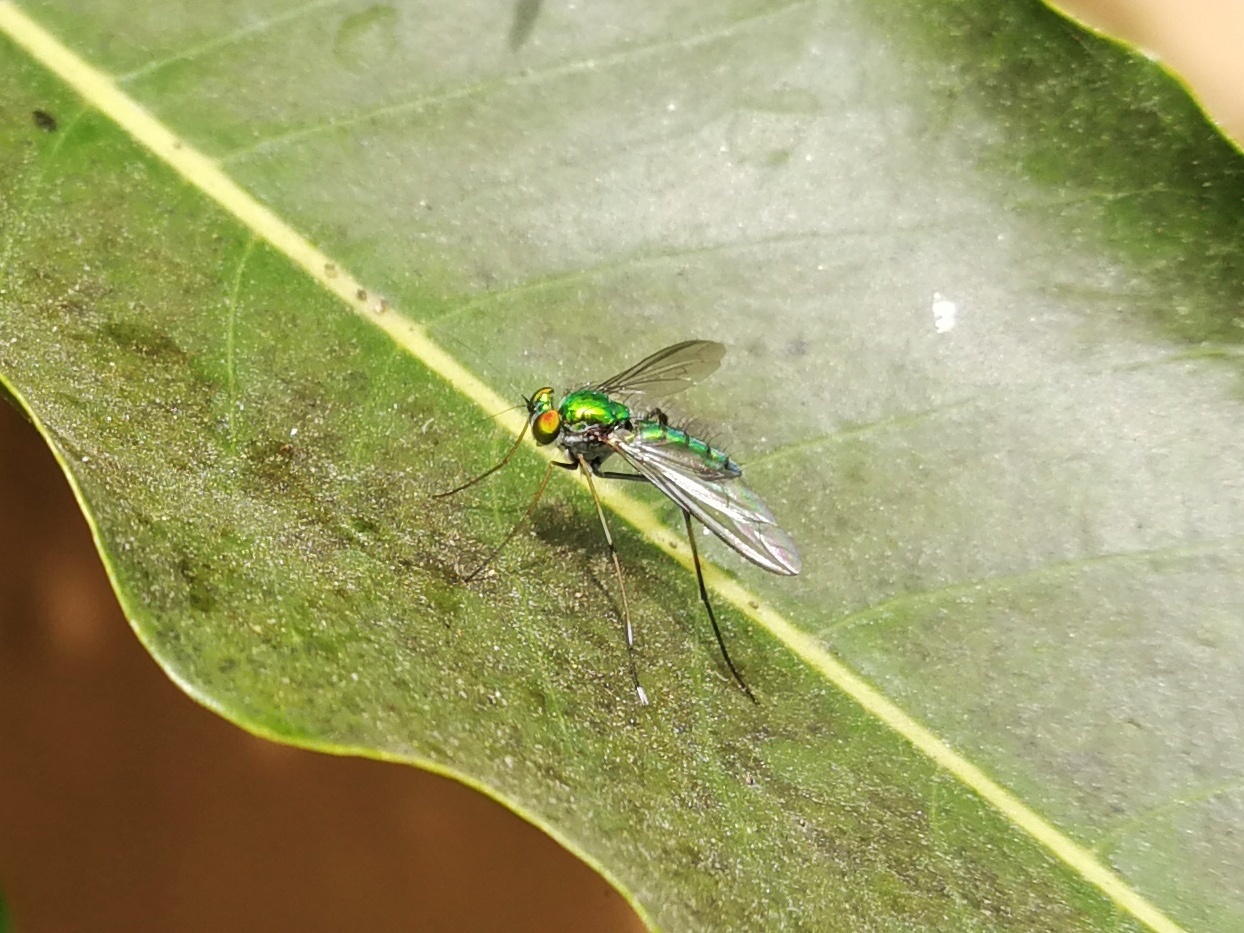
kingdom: Animalia
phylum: Arthropoda
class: Insecta
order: Diptera
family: Dolichopodidae
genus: Chrysosoma
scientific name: Chrysosoma leucopogon
